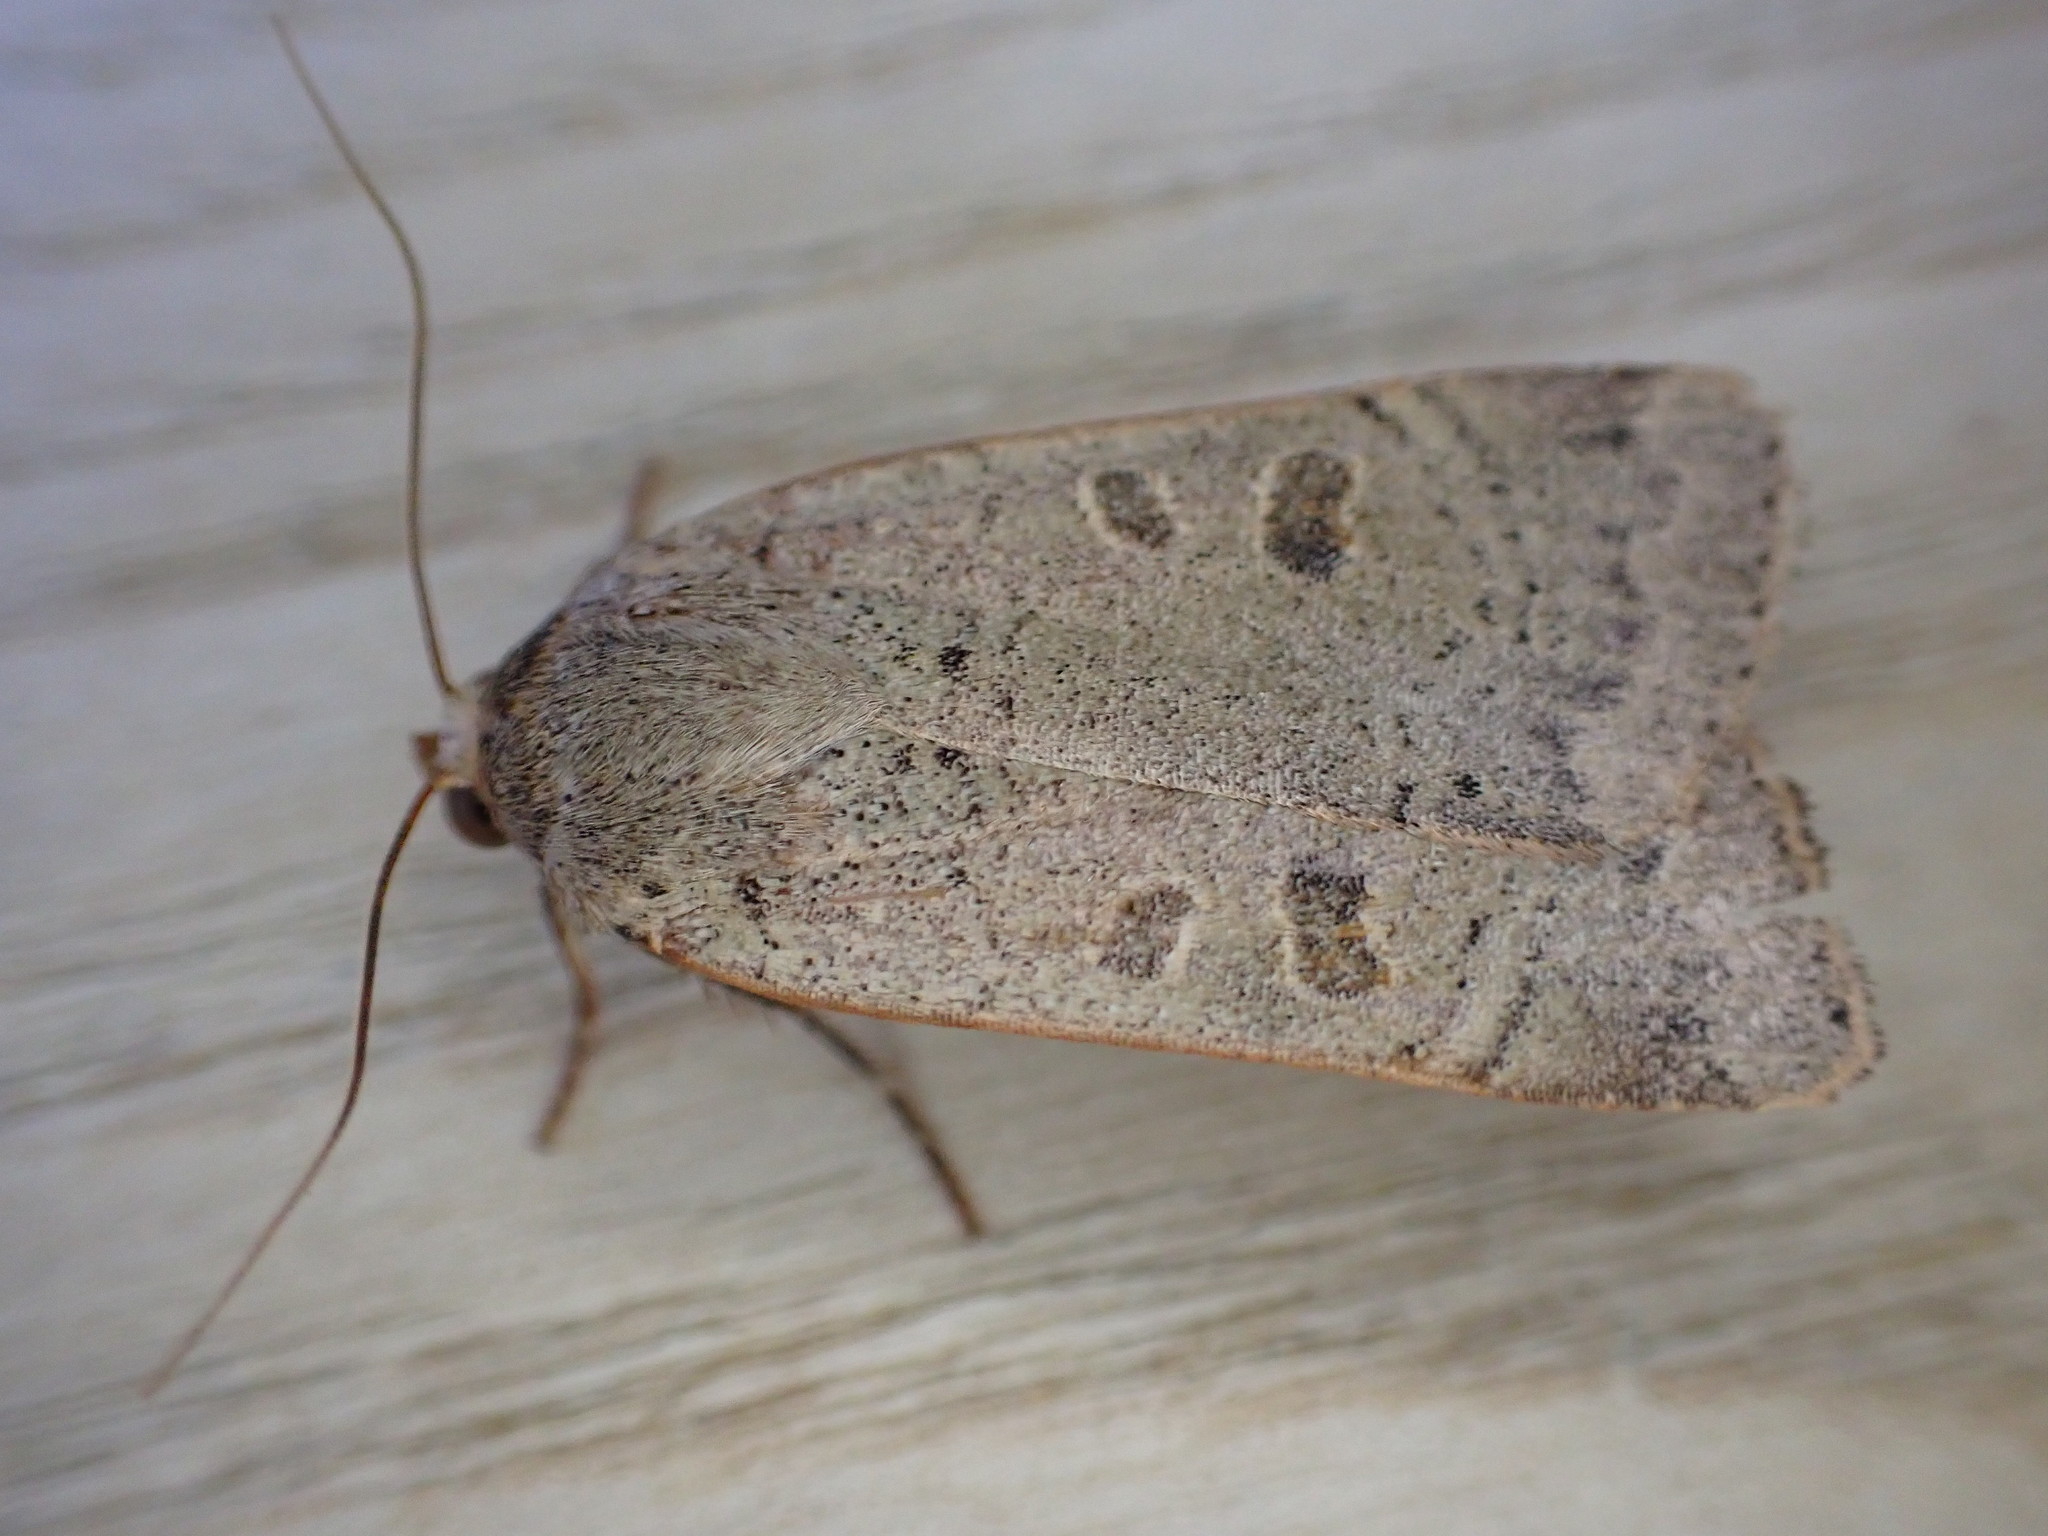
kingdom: Animalia
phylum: Arthropoda
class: Insecta
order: Lepidoptera
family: Noctuidae
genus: Noctua
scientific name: Noctua comes
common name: Lesser yellow underwing
